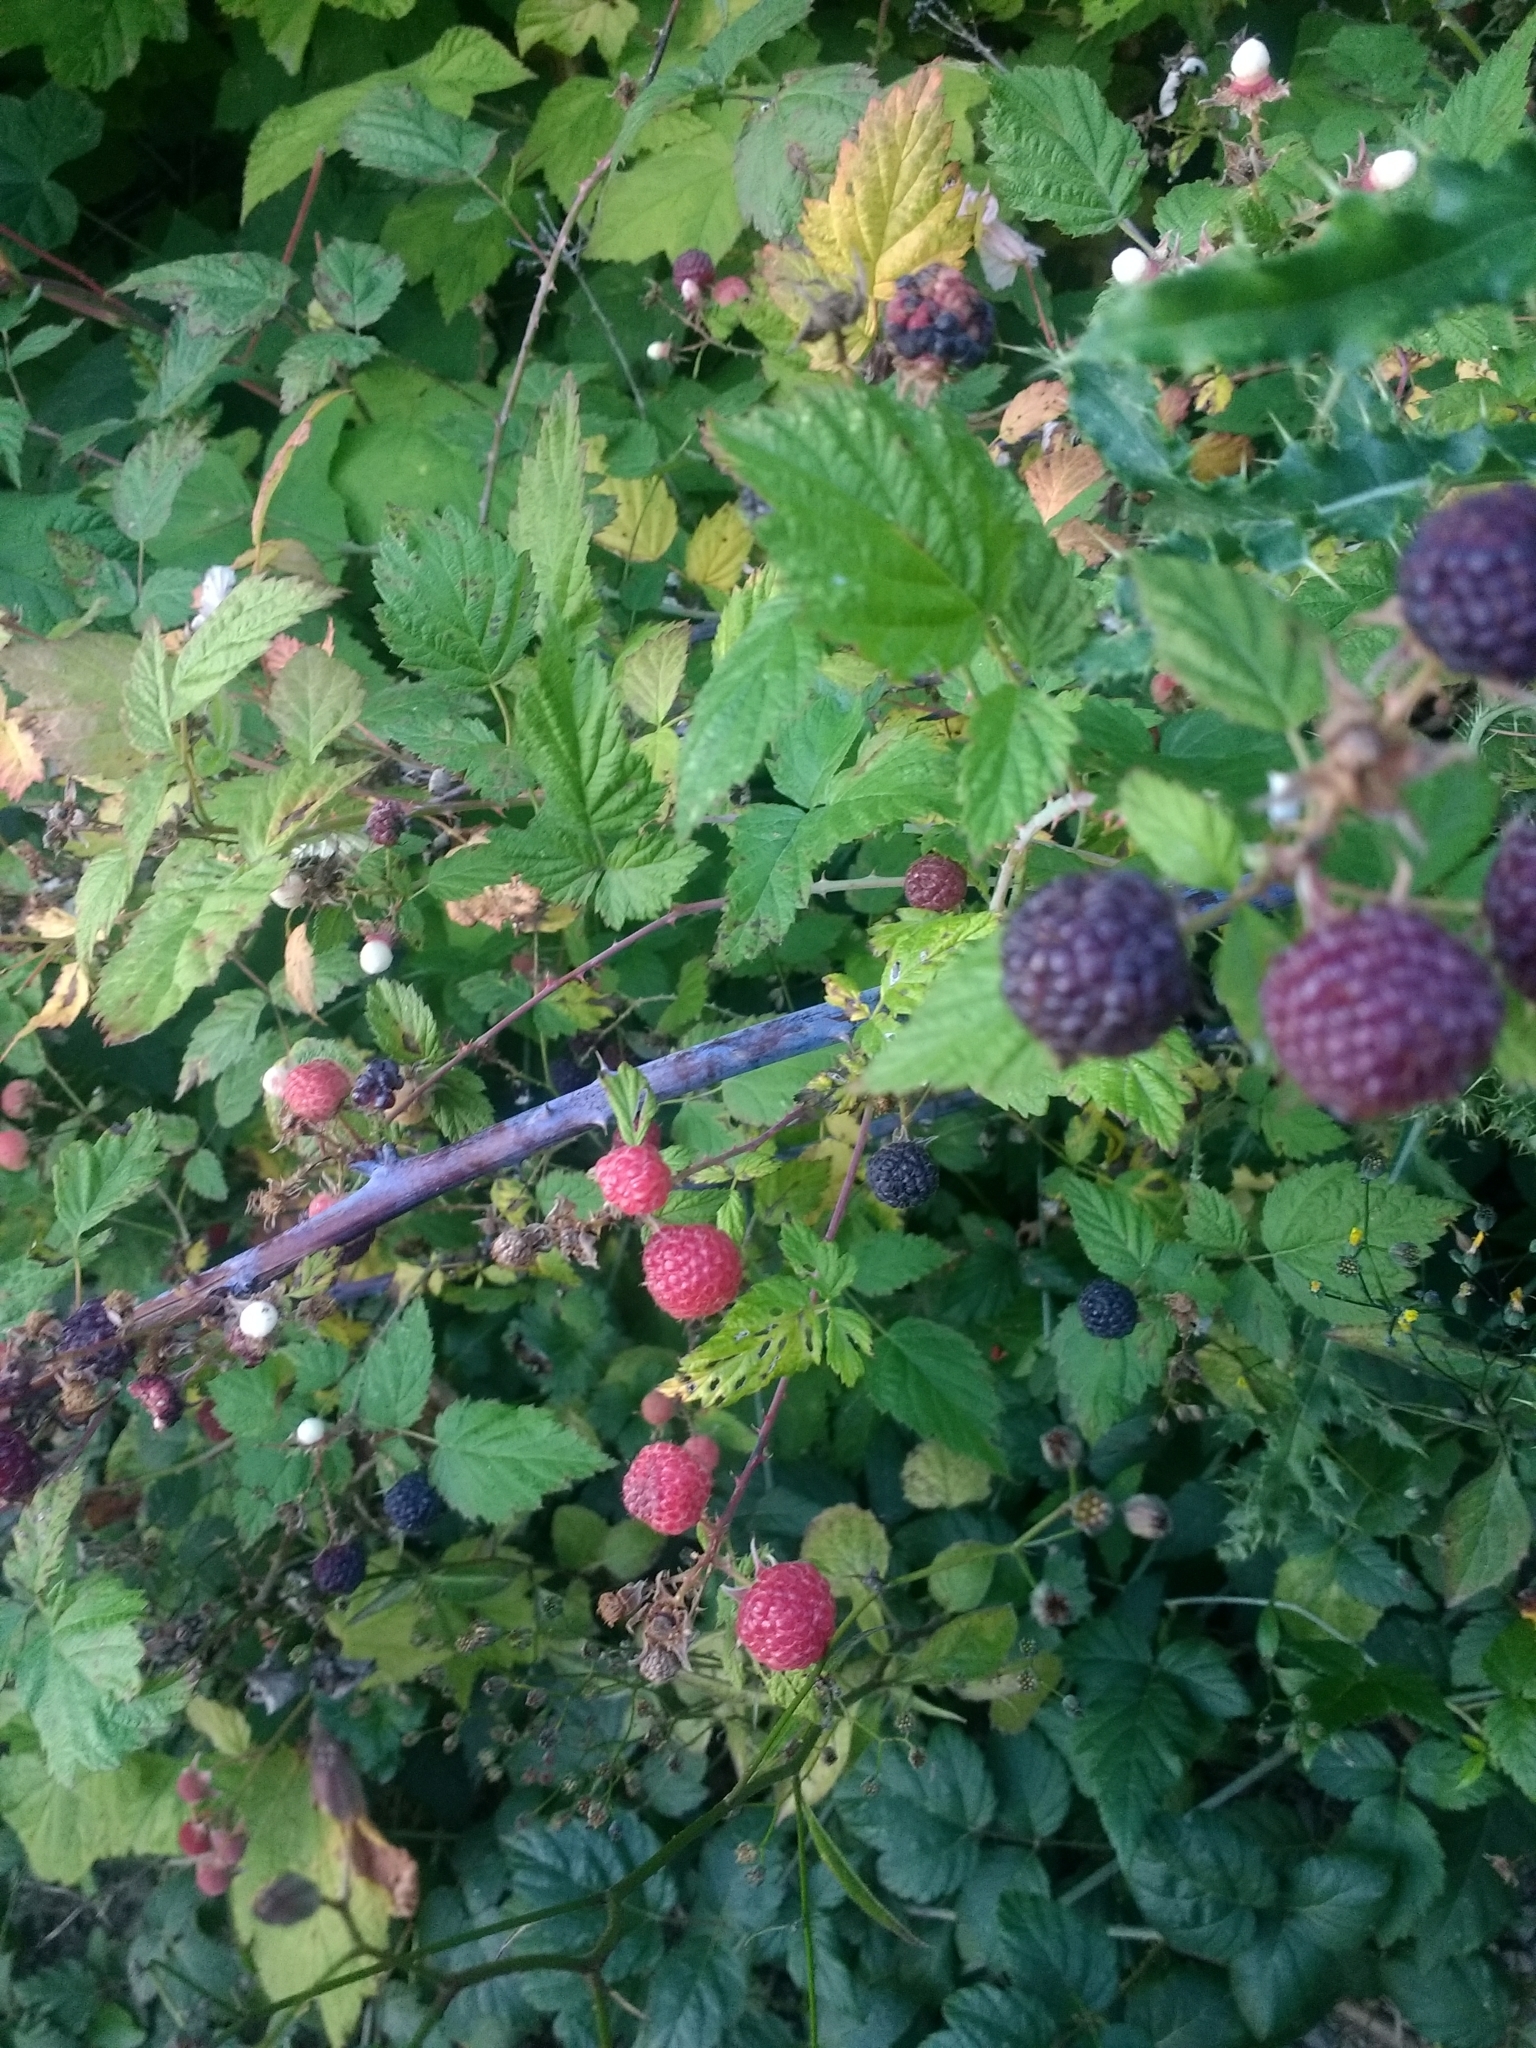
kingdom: Plantae
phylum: Tracheophyta
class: Magnoliopsida
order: Rosales
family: Rosaceae
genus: Rubus
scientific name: Rubus leucodermis
